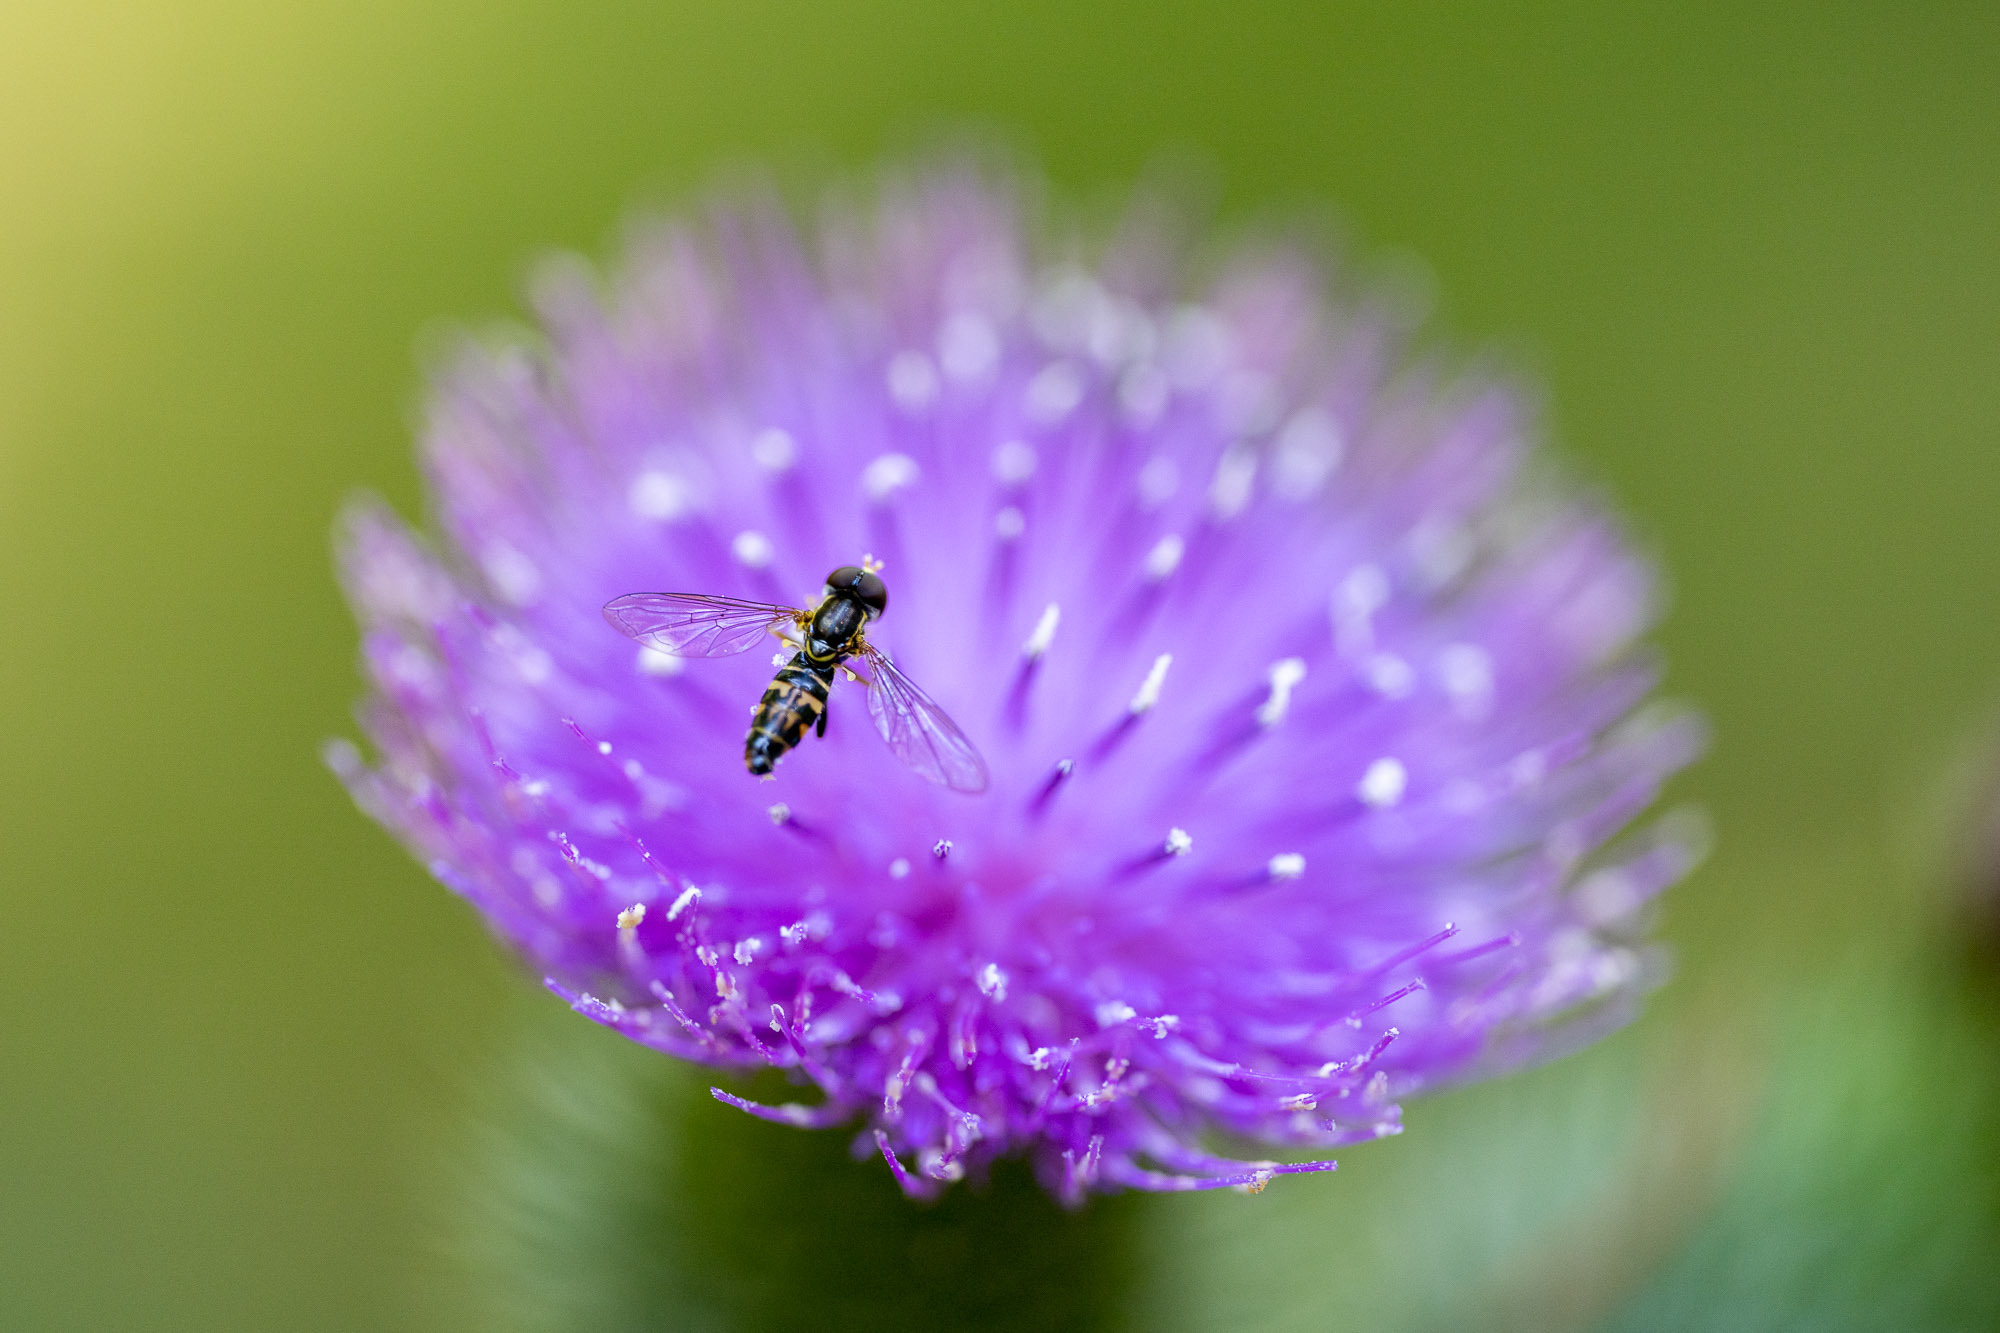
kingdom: Animalia
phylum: Arthropoda
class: Insecta
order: Diptera
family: Syrphidae
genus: Toxomerus
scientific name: Toxomerus occidentalis
